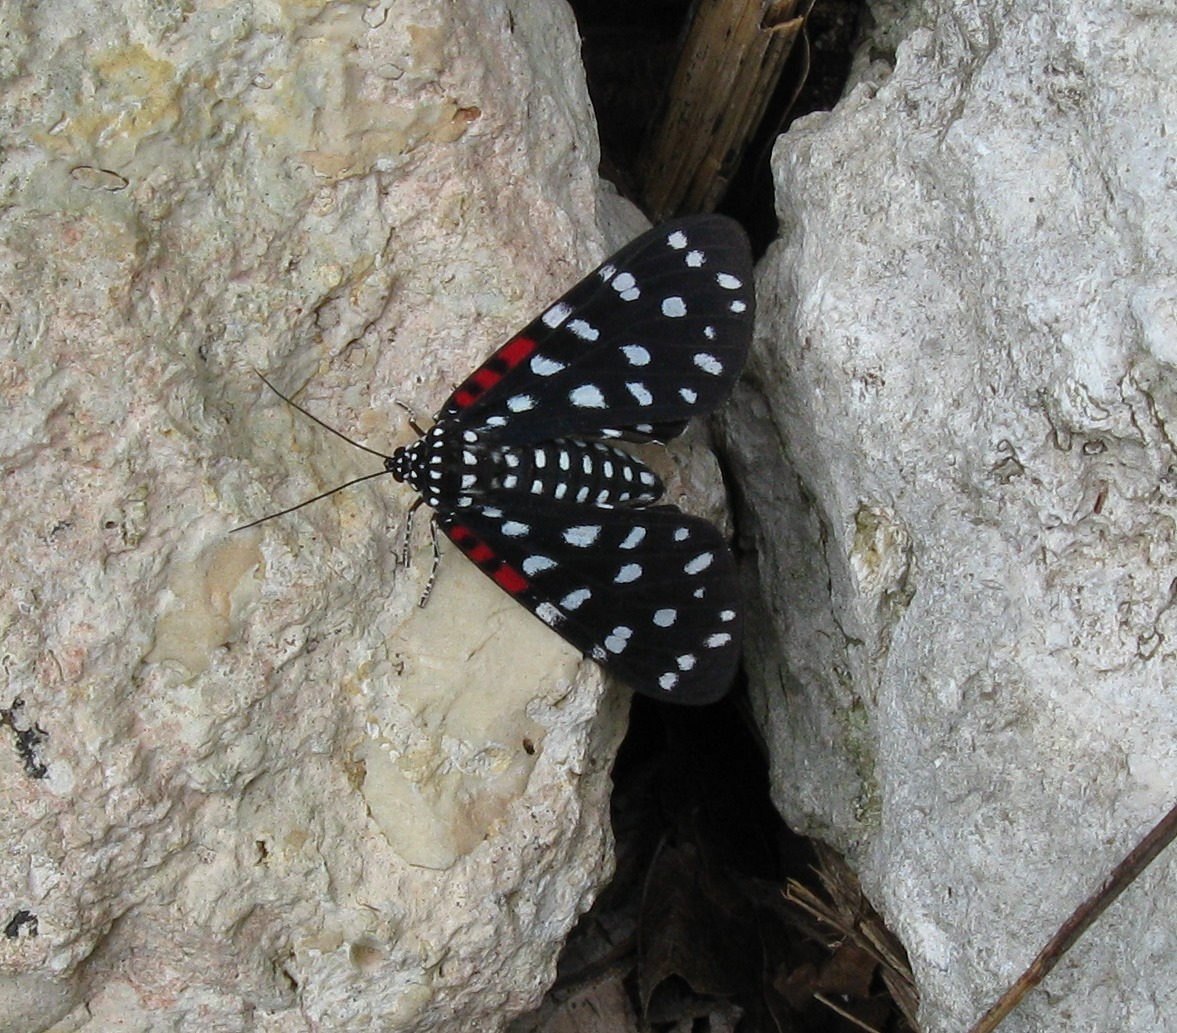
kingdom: Animalia
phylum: Arthropoda
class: Insecta
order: Lepidoptera
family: Erebidae
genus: Composia
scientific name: Composia credula
